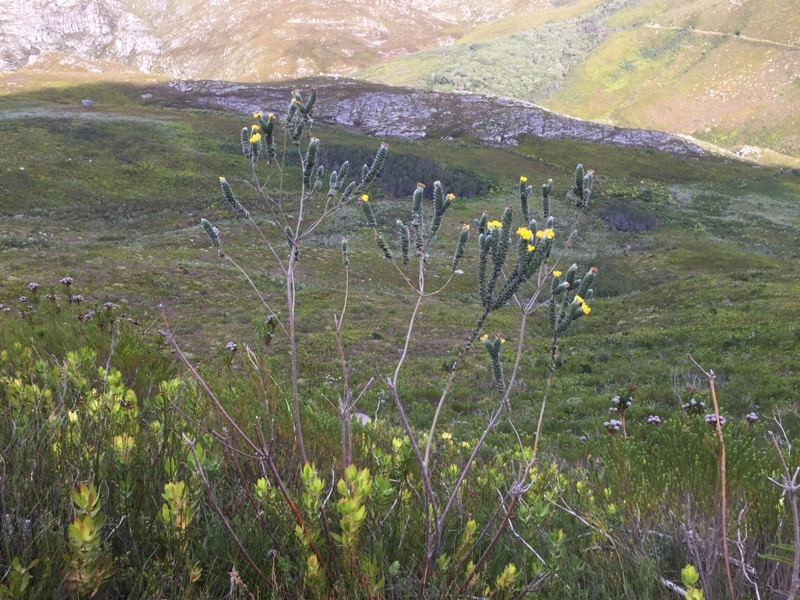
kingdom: Plantae
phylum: Tracheophyta
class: Magnoliopsida
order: Fabales
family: Fabaceae
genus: Liparia
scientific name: Liparia vestita
